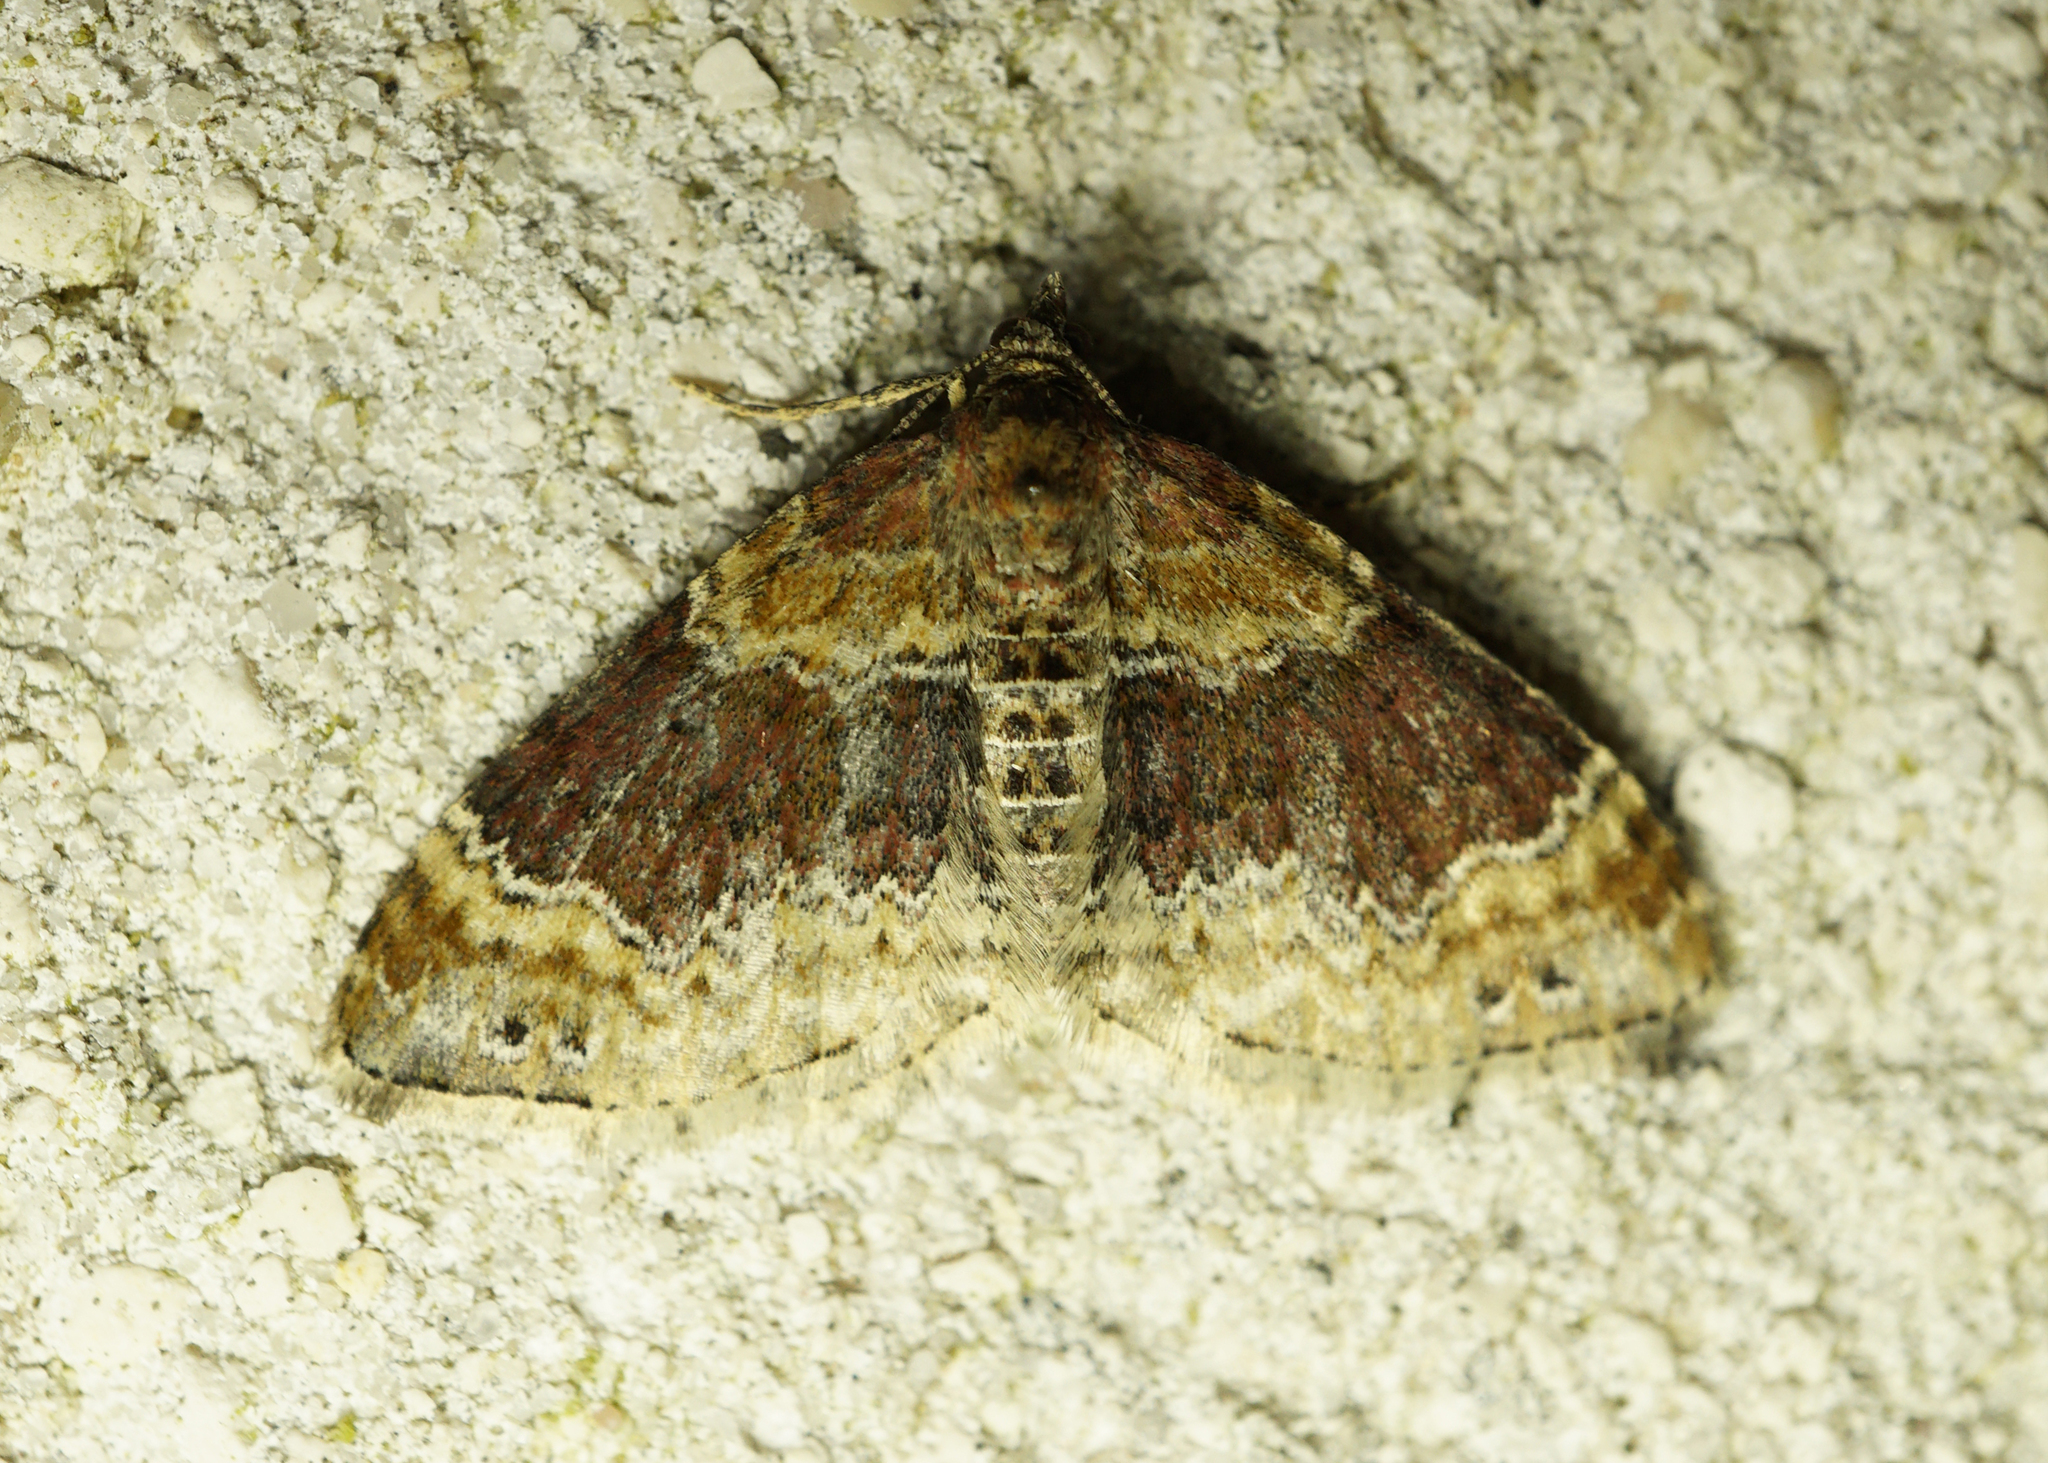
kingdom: Animalia
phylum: Arthropoda
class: Insecta
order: Lepidoptera
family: Geometridae
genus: Xanthorhoe
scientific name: Xanthorhoe spadicearia
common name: Red twin-spot carpet
